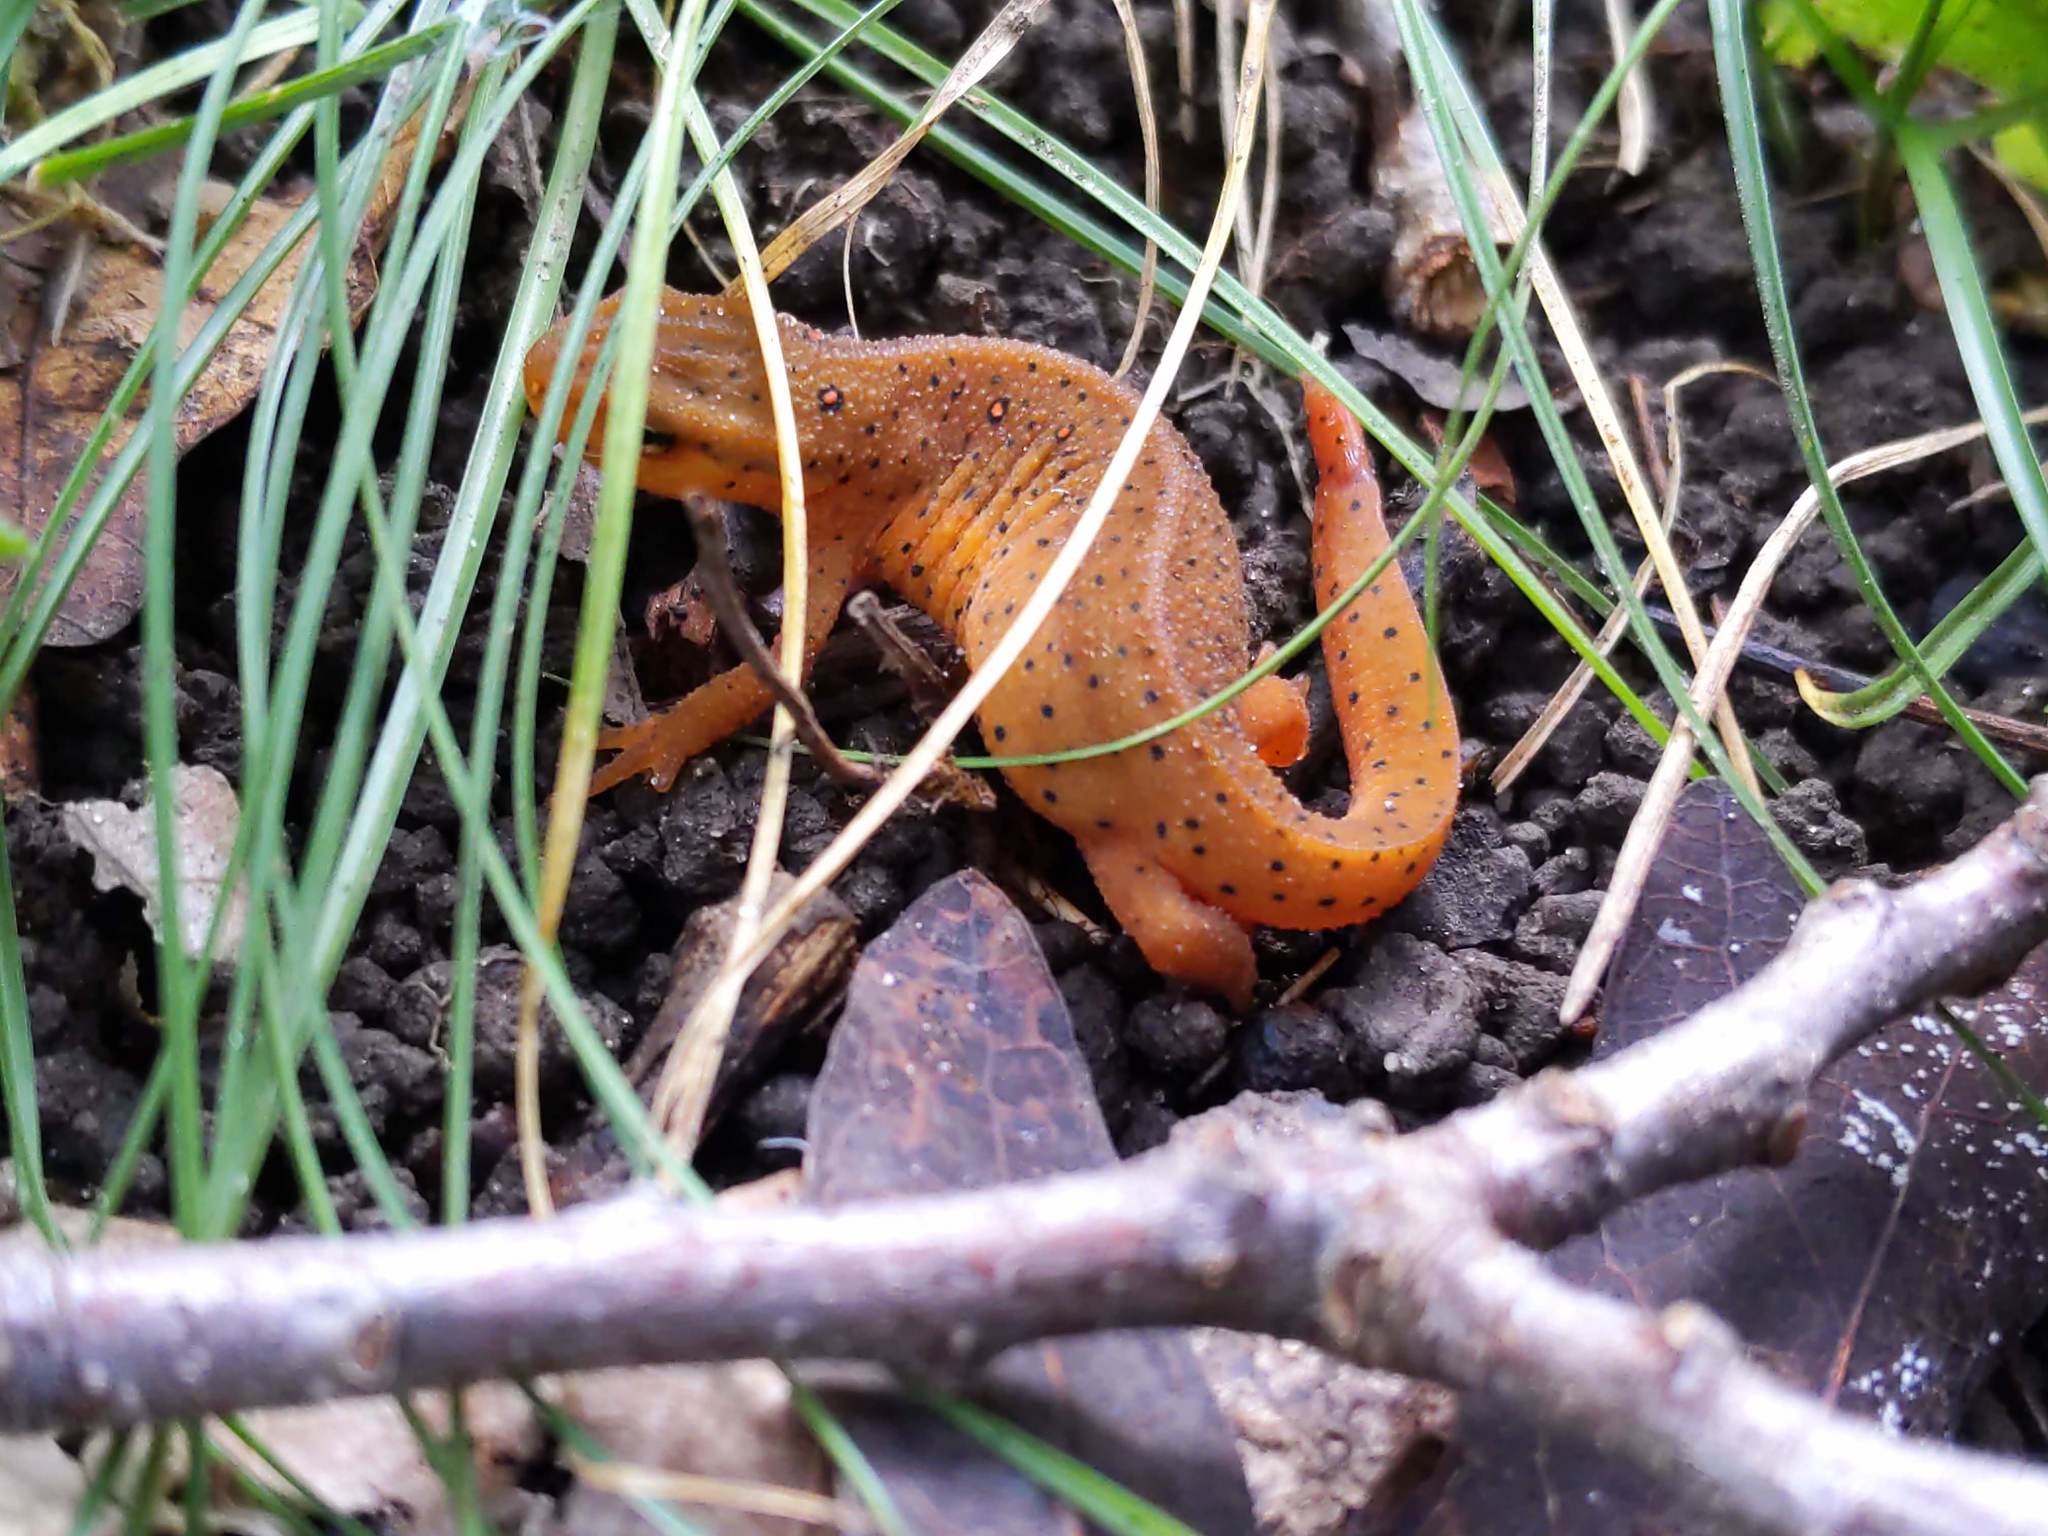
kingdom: Animalia
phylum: Chordata
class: Amphibia
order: Caudata
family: Salamandridae
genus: Notophthalmus
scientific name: Notophthalmus viridescens
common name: Eastern newt
